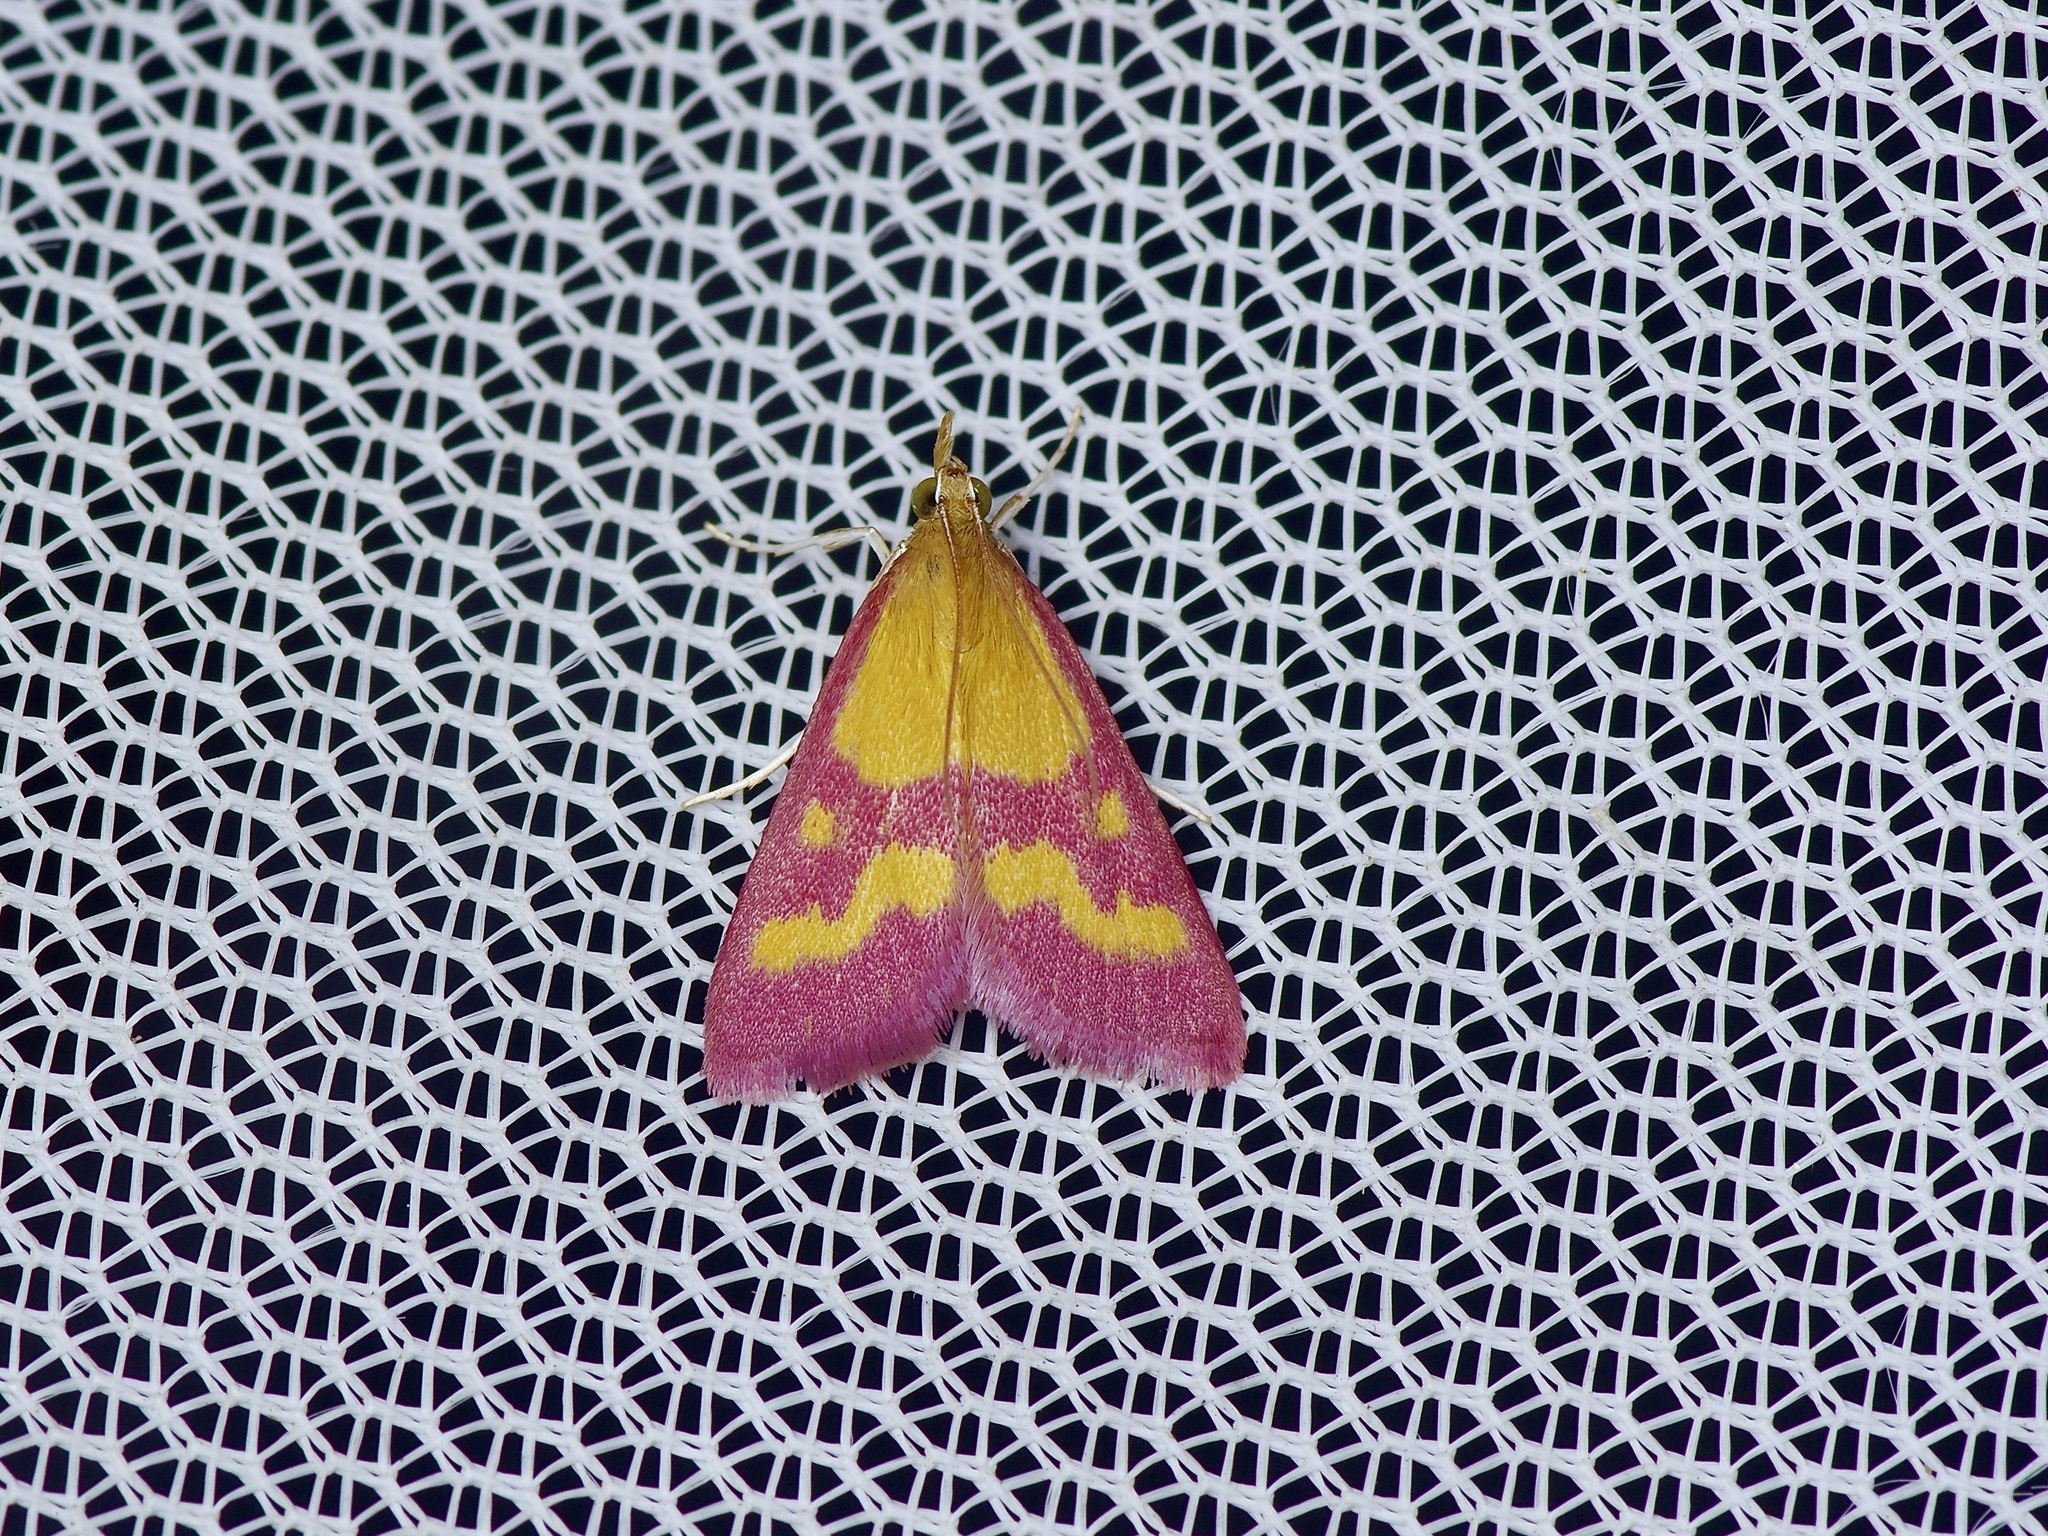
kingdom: Animalia
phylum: Arthropoda
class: Insecta
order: Lepidoptera
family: Crambidae
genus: Pyrausta
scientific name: Pyrausta laticlavia
